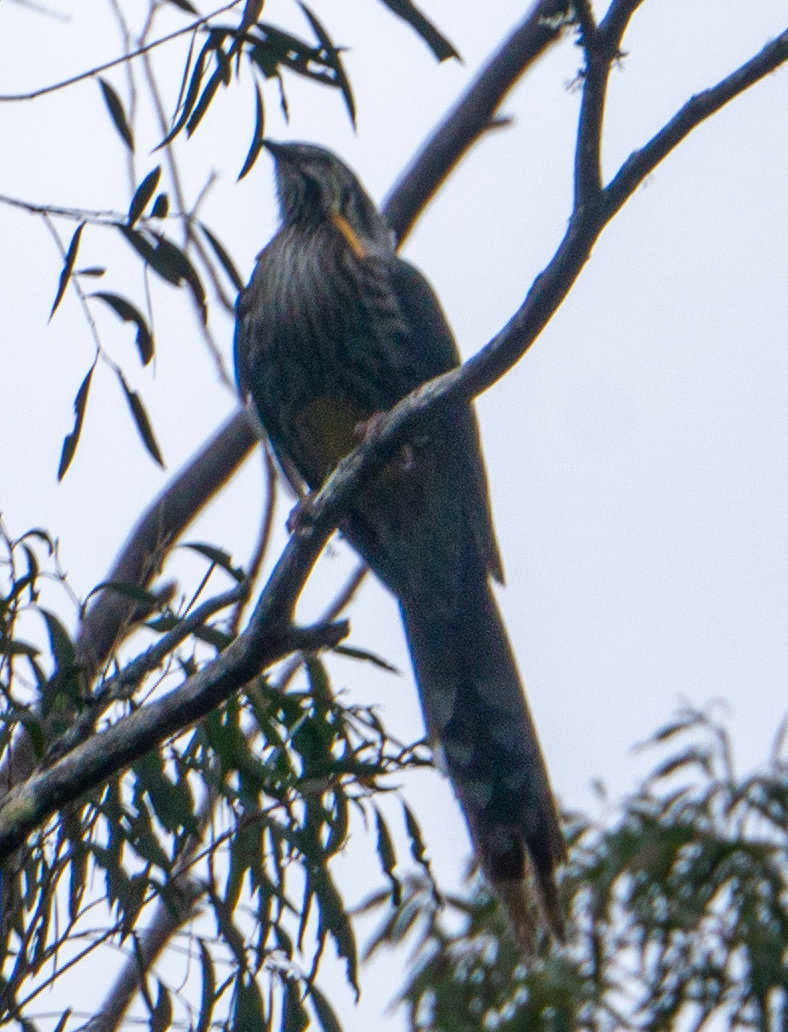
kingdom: Animalia
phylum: Chordata
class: Aves
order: Passeriformes
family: Meliphagidae
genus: Anthochaera
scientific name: Anthochaera paradoxa
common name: Yellow wattlebird
